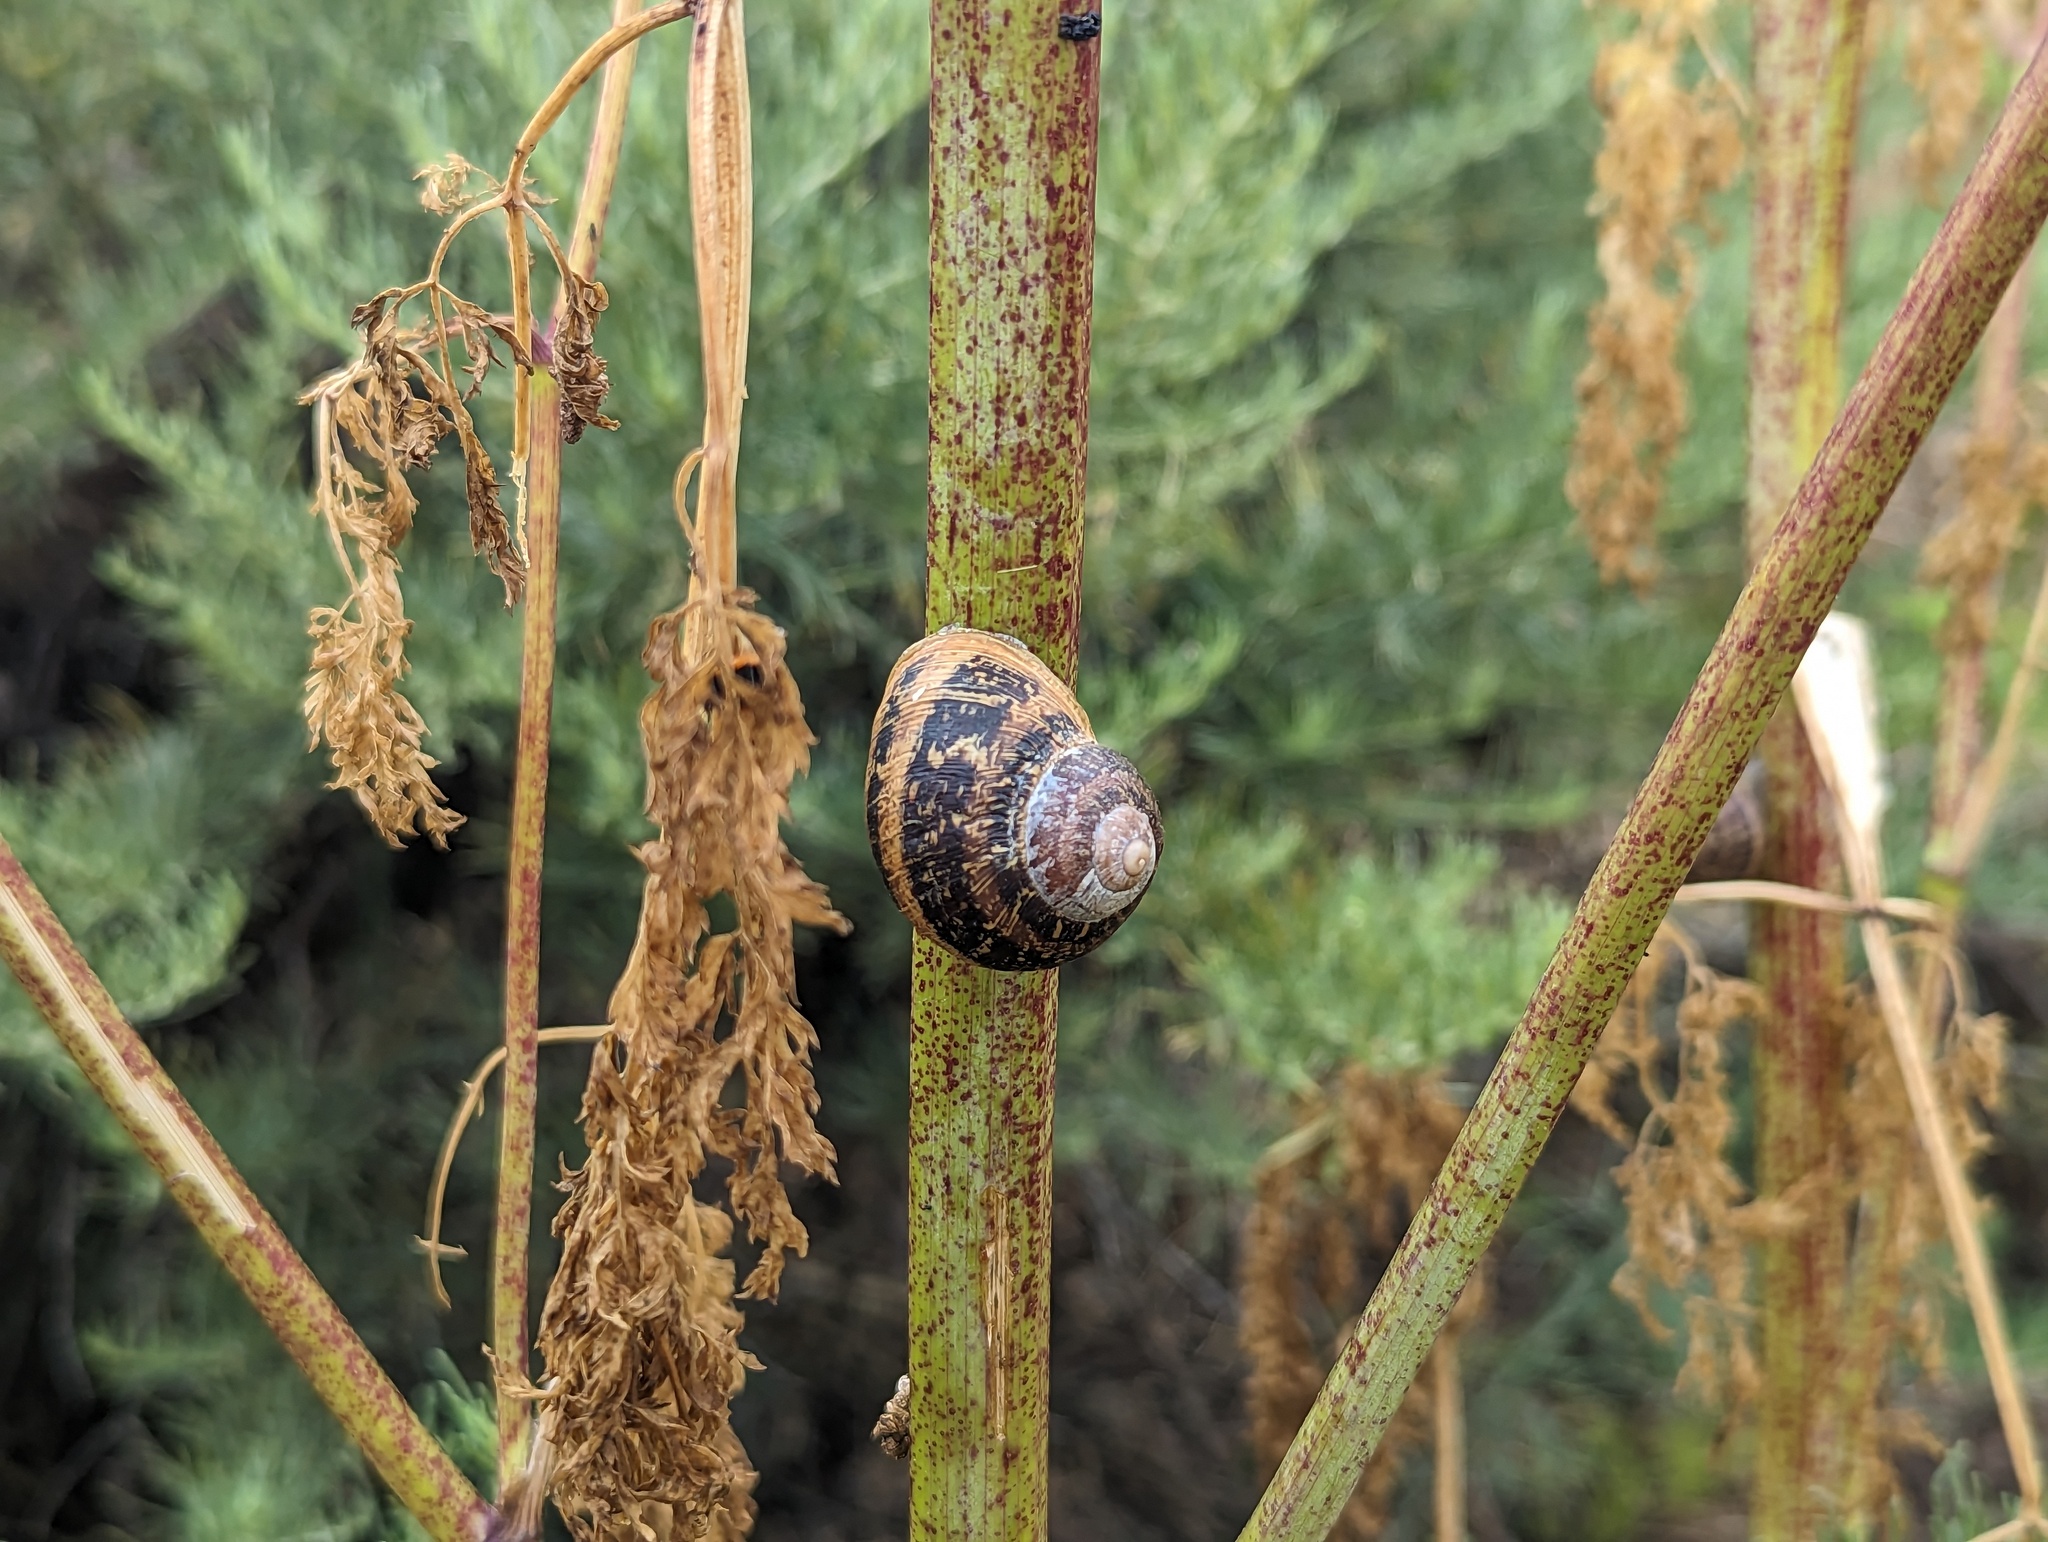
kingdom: Animalia
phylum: Mollusca
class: Gastropoda
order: Stylommatophora
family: Helicidae
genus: Cornu
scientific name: Cornu aspersum
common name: Brown garden snail
